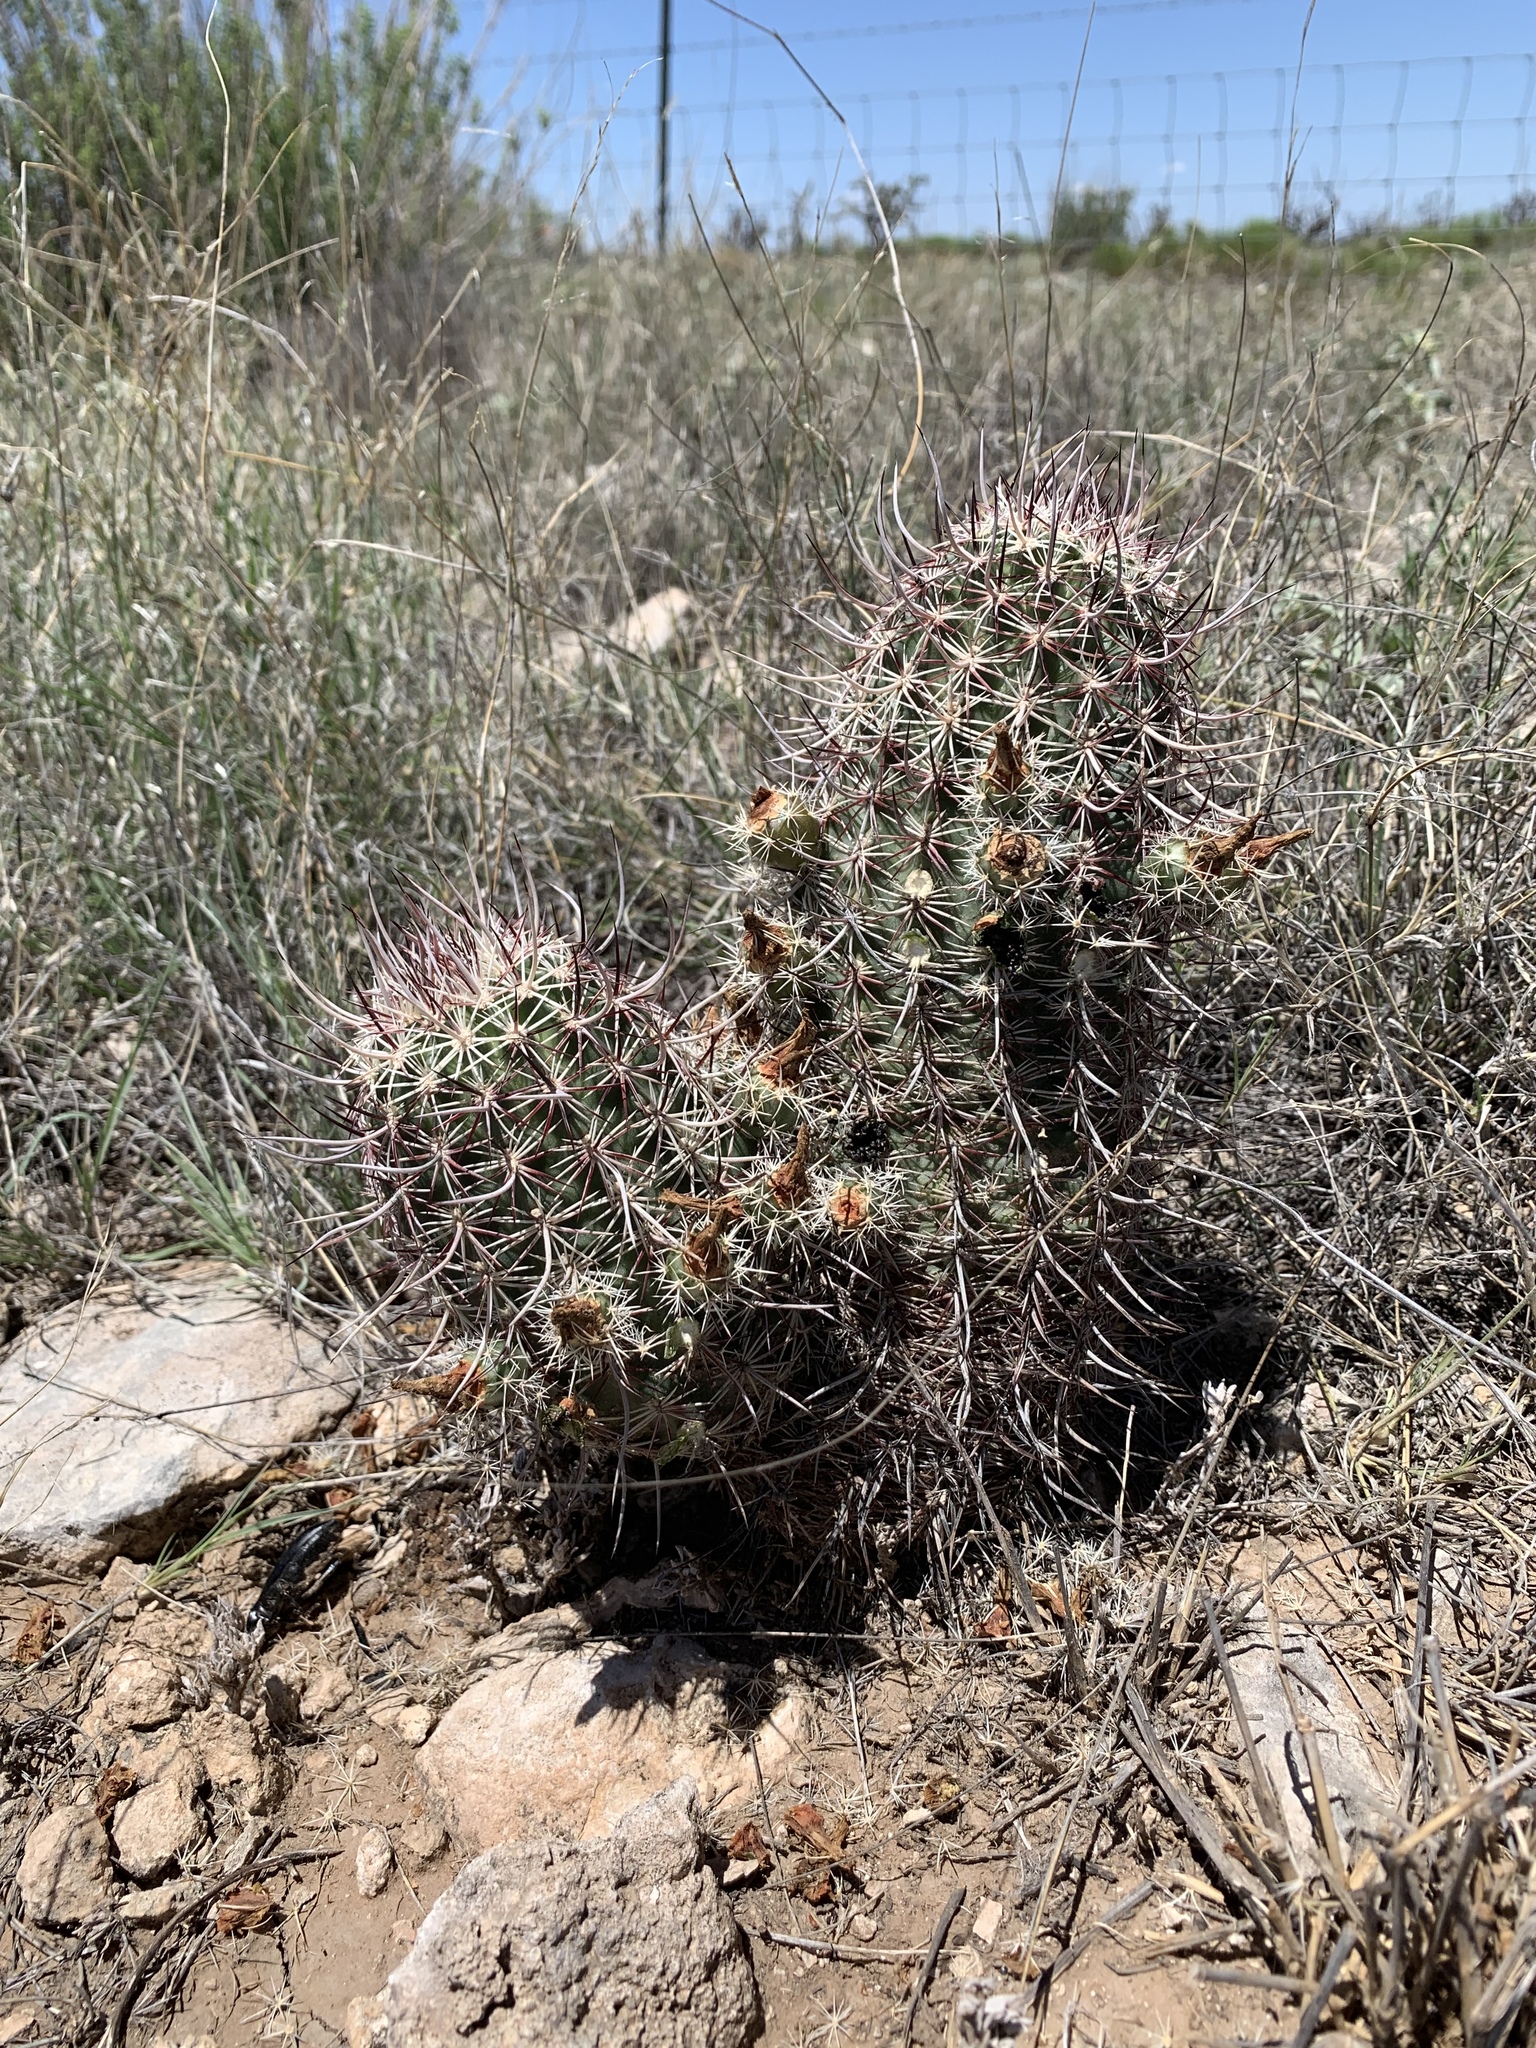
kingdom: Plantae
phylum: Tracheophyta
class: Magnoliopsida
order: Caryophyllales
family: Cactaceae
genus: Echinocereus
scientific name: Echinocereus viridiflorus
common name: Nylon hedgehog cactus
